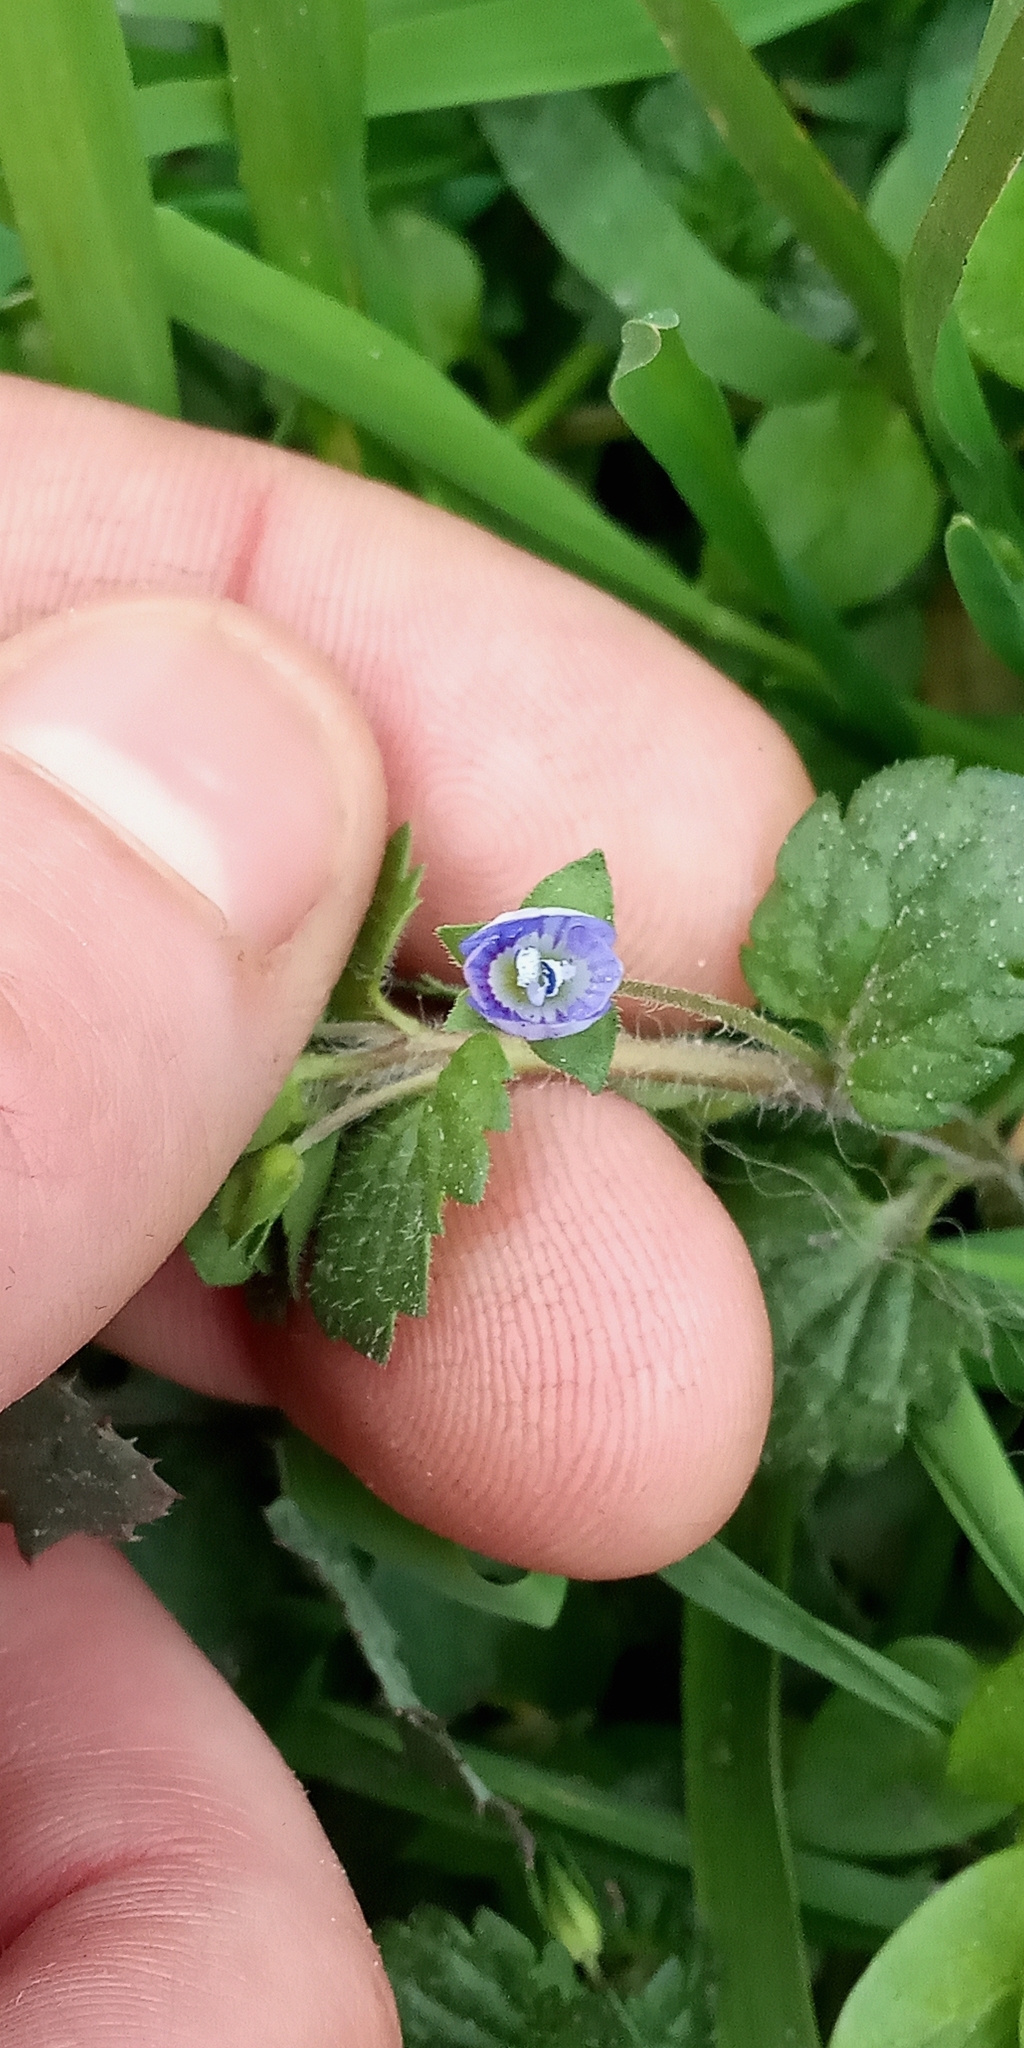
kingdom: Plantae
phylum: Tracheophyta
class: Magnoliopsida
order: Lamiales
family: Plantaginaceae
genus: Veronica
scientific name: Veronica persica
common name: Common field-speedwell
